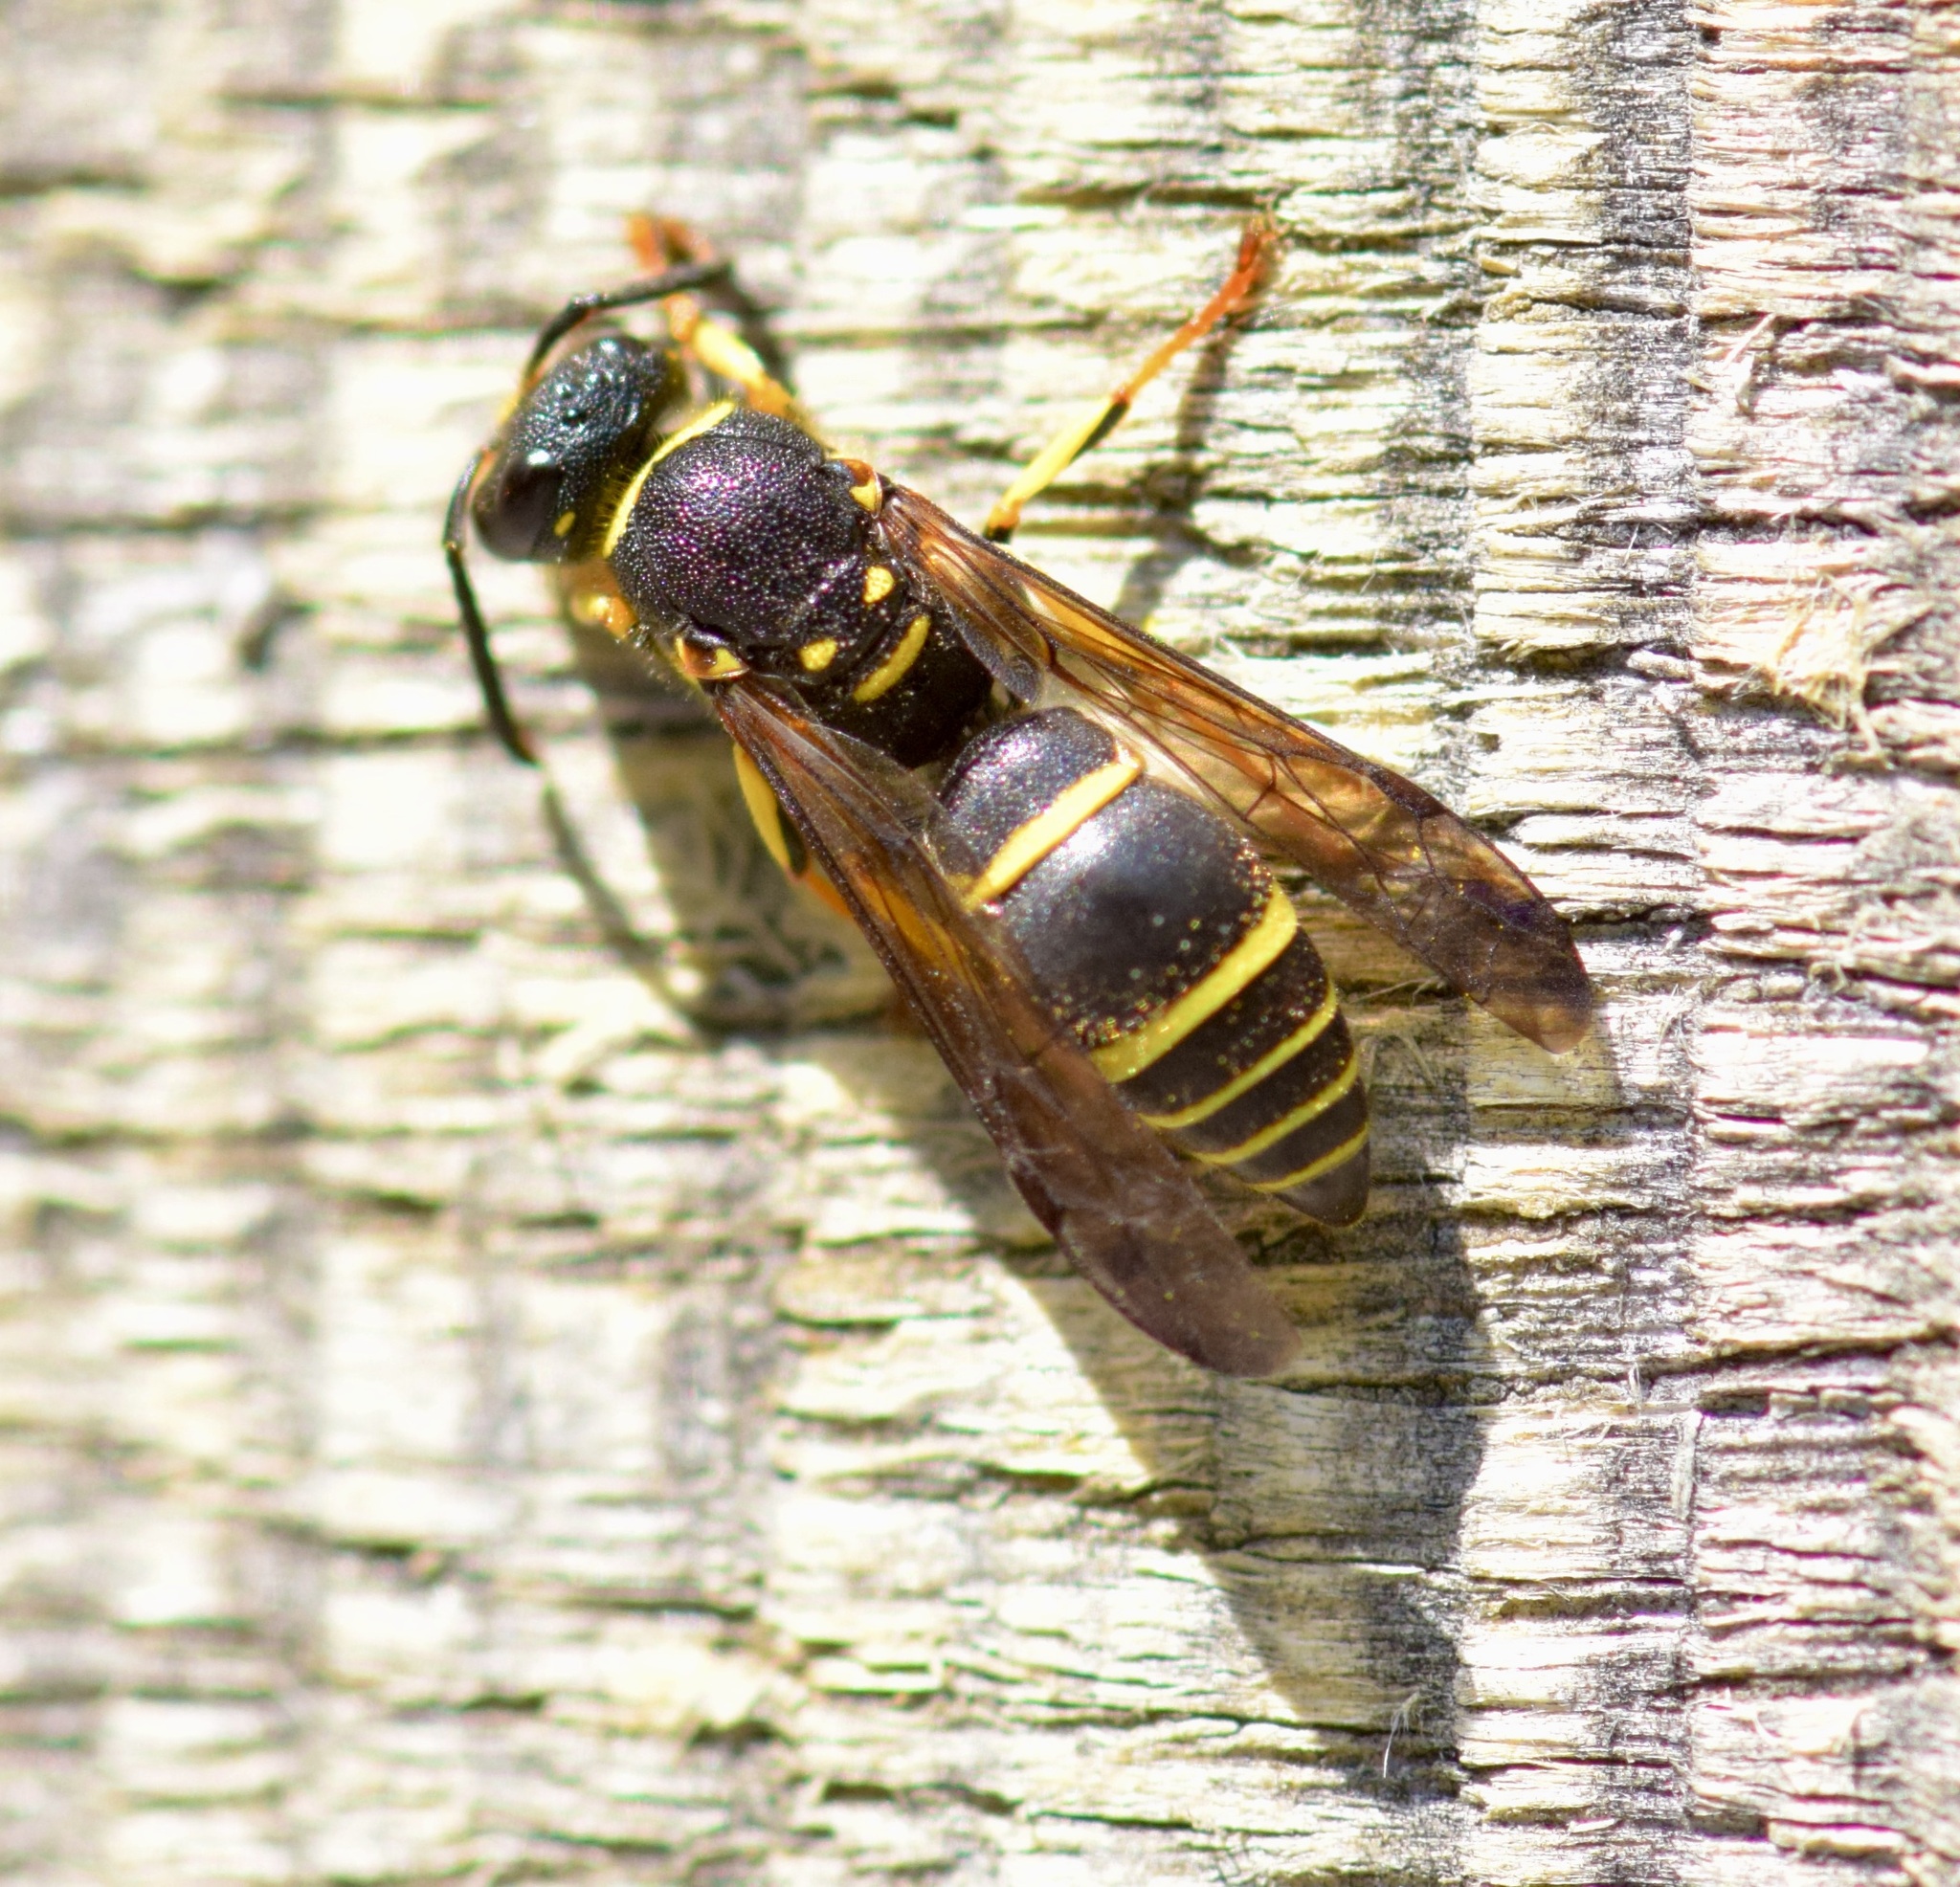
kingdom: Animalia
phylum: Arthropoda
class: Insecta
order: Hymenoptera
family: Vespidae
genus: Ancistrocerus
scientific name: Ancistrocerus adiabatus
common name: Bramble mason wasp
